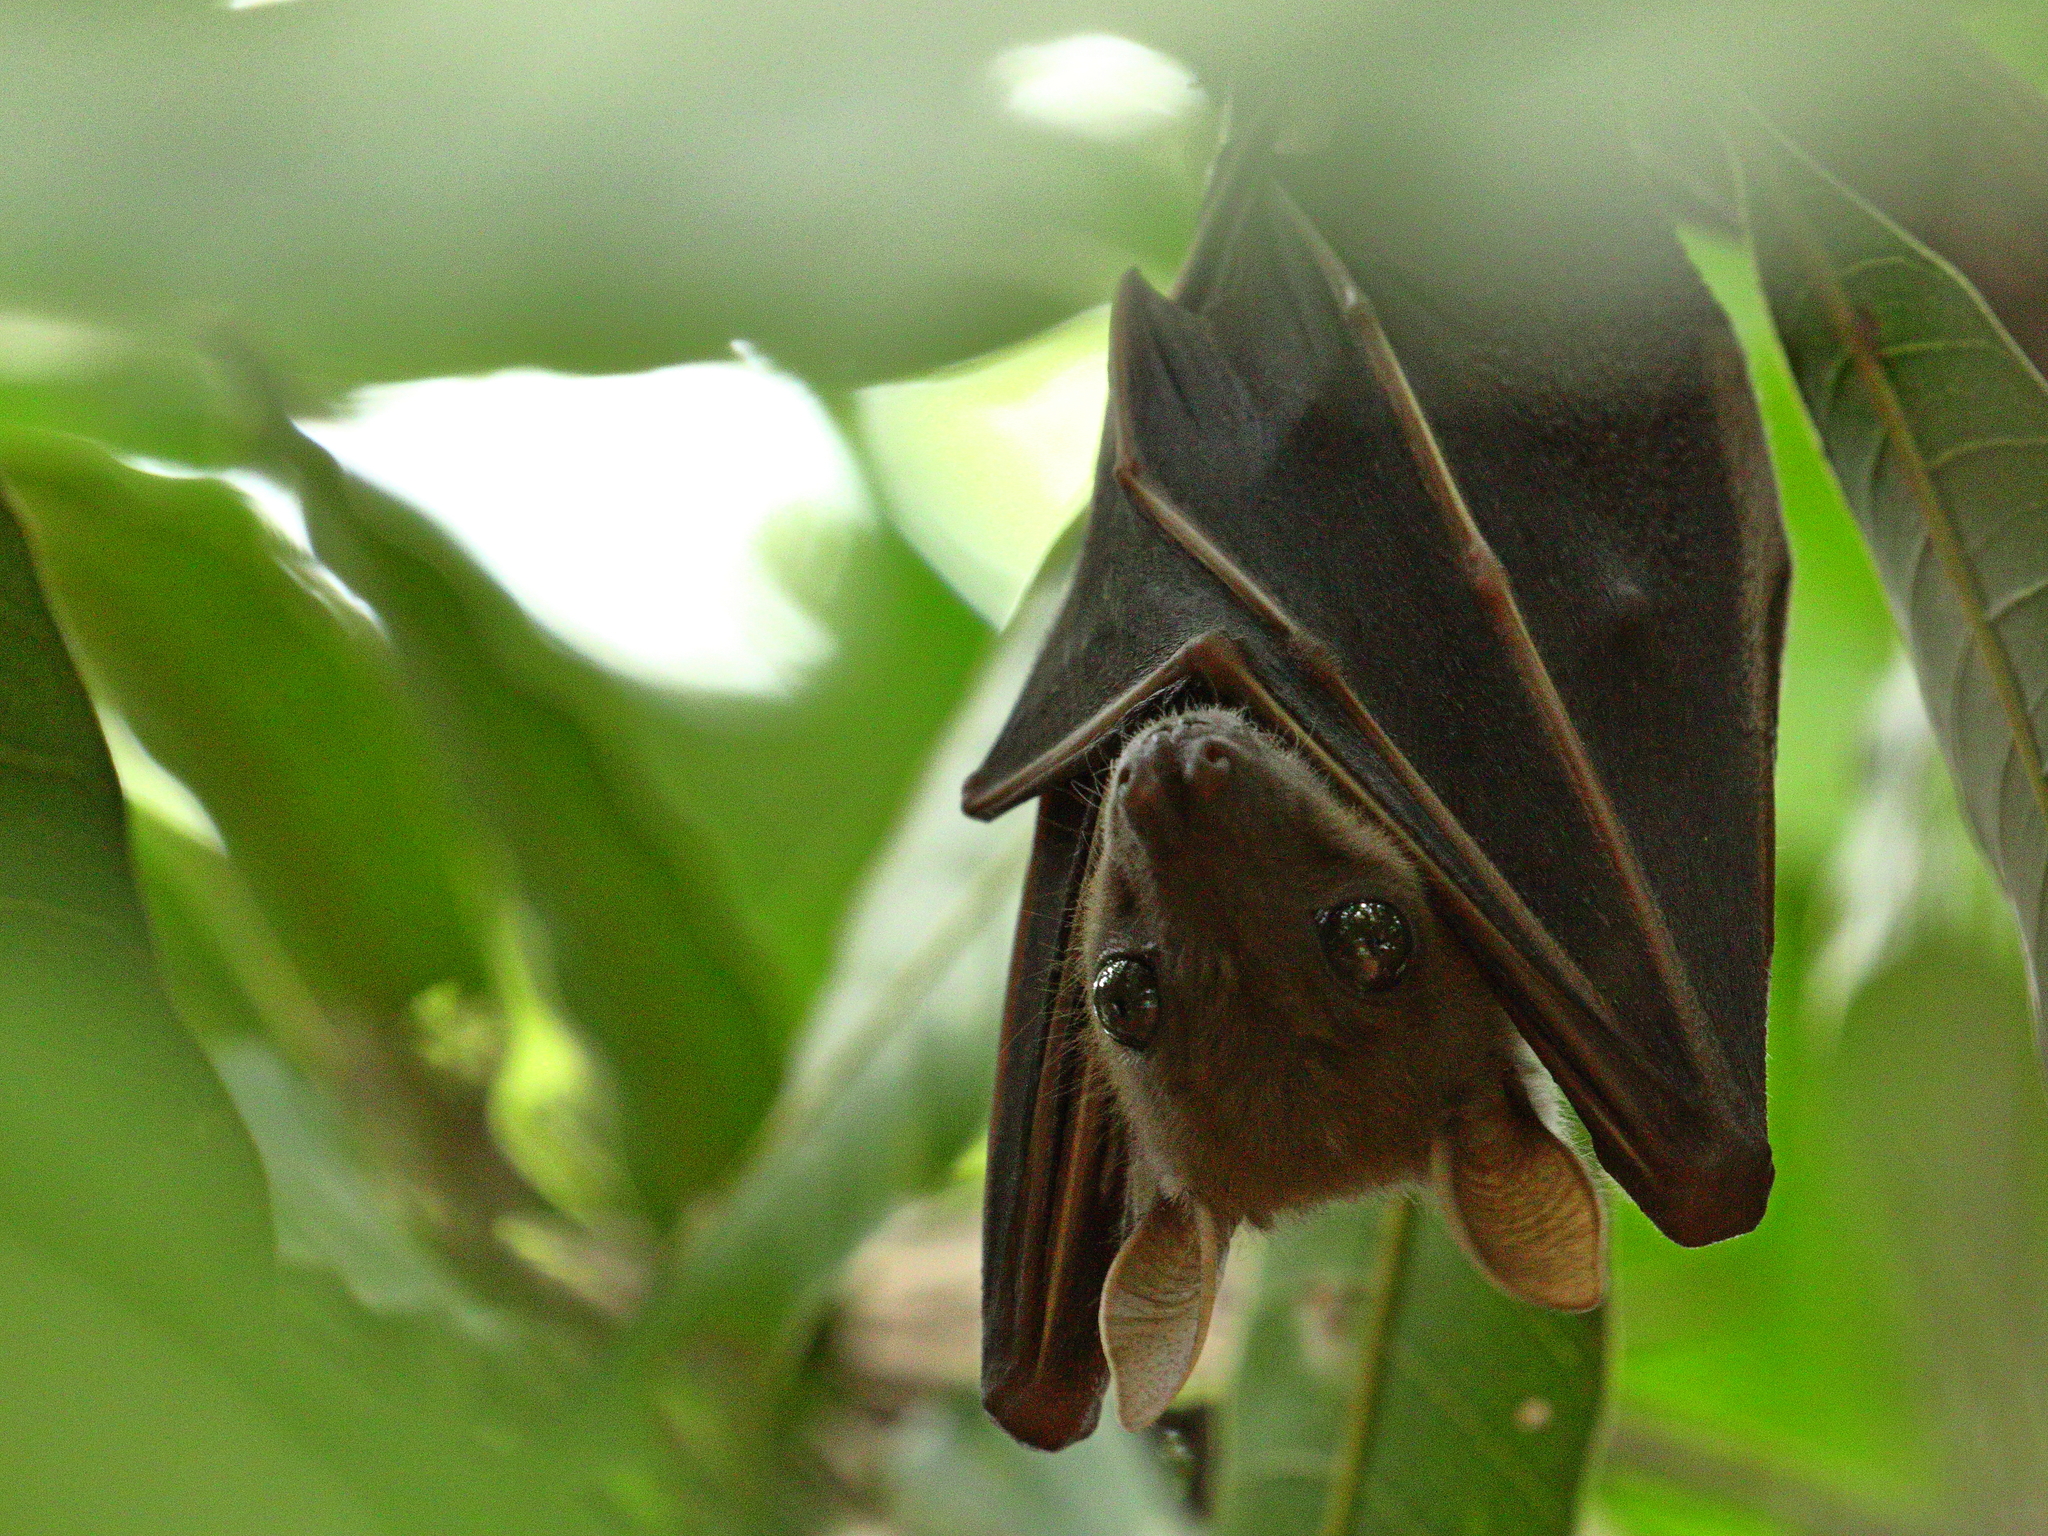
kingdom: Animalia
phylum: Chordata
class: Mammalia
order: Chiroptera
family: Pteropodidae
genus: Cynopterus
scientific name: Cynopterus sphinx
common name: Greater short-nosed fruit bat
